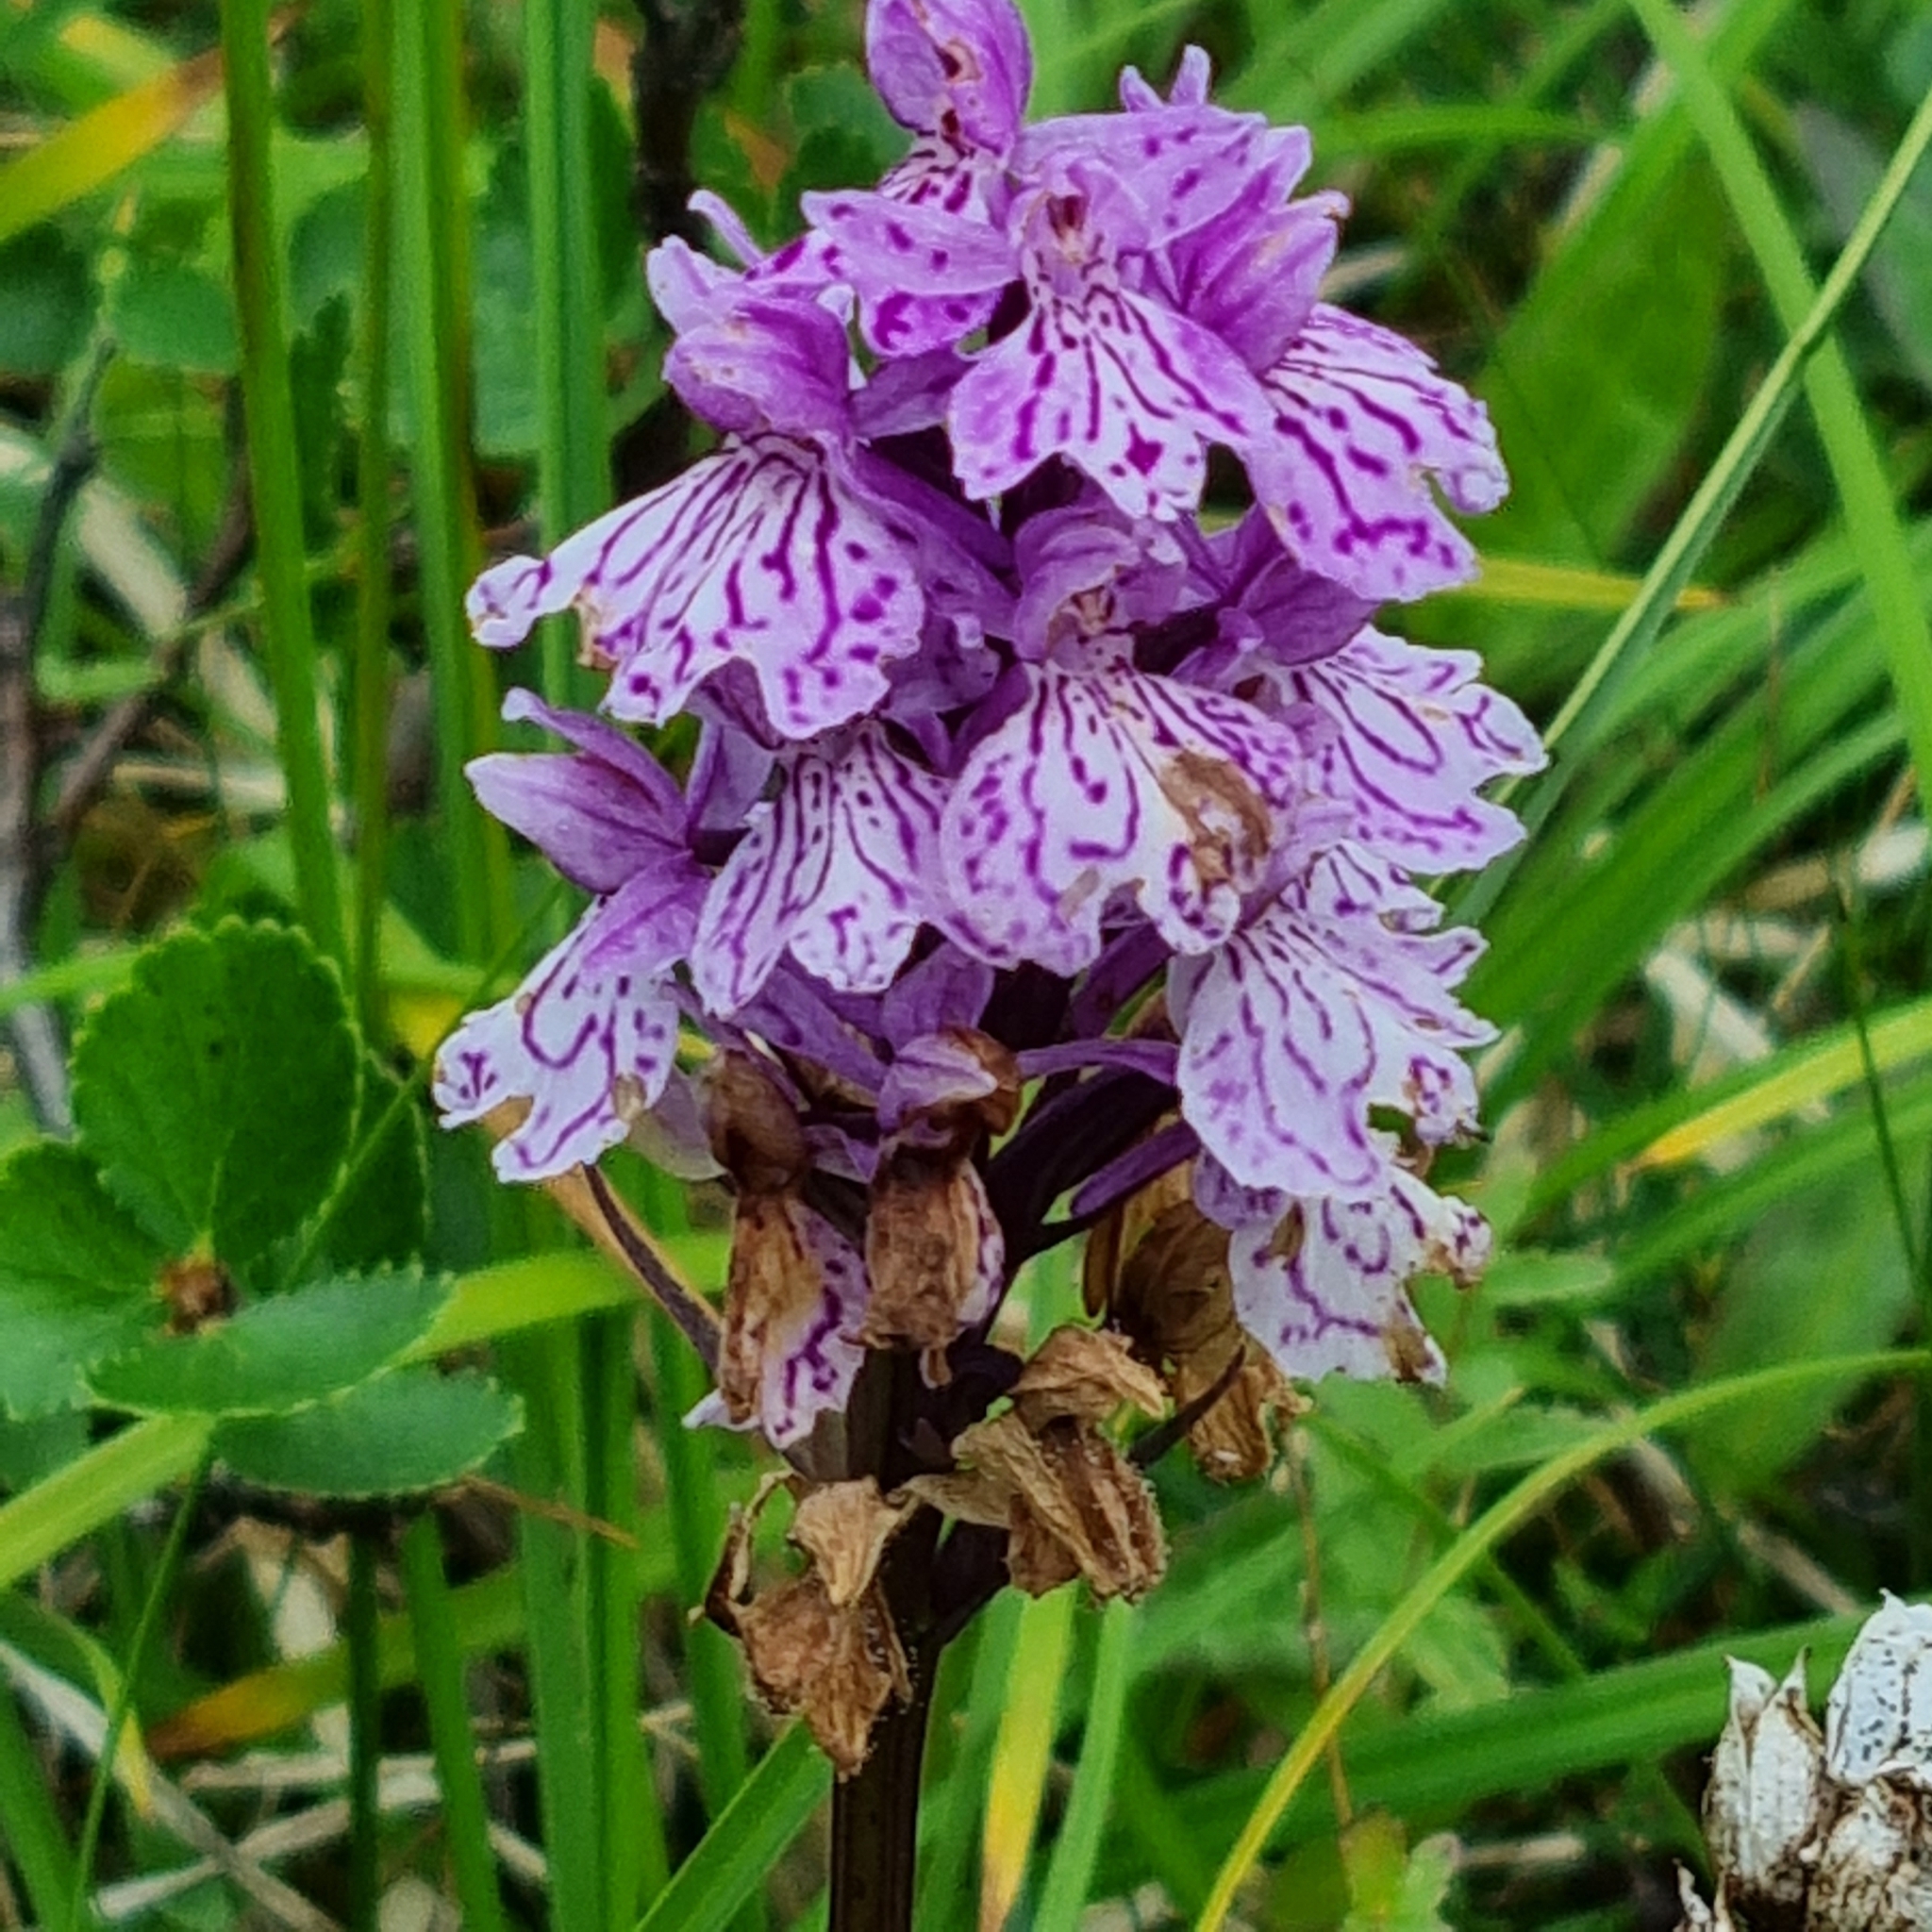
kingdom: Plantae
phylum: Tracheophyta
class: Liliopsida
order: Asparagales
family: Orchidaceae
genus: Dactylorhiza
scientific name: Dactylorhiza maculata
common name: Heath spotted-orchid
